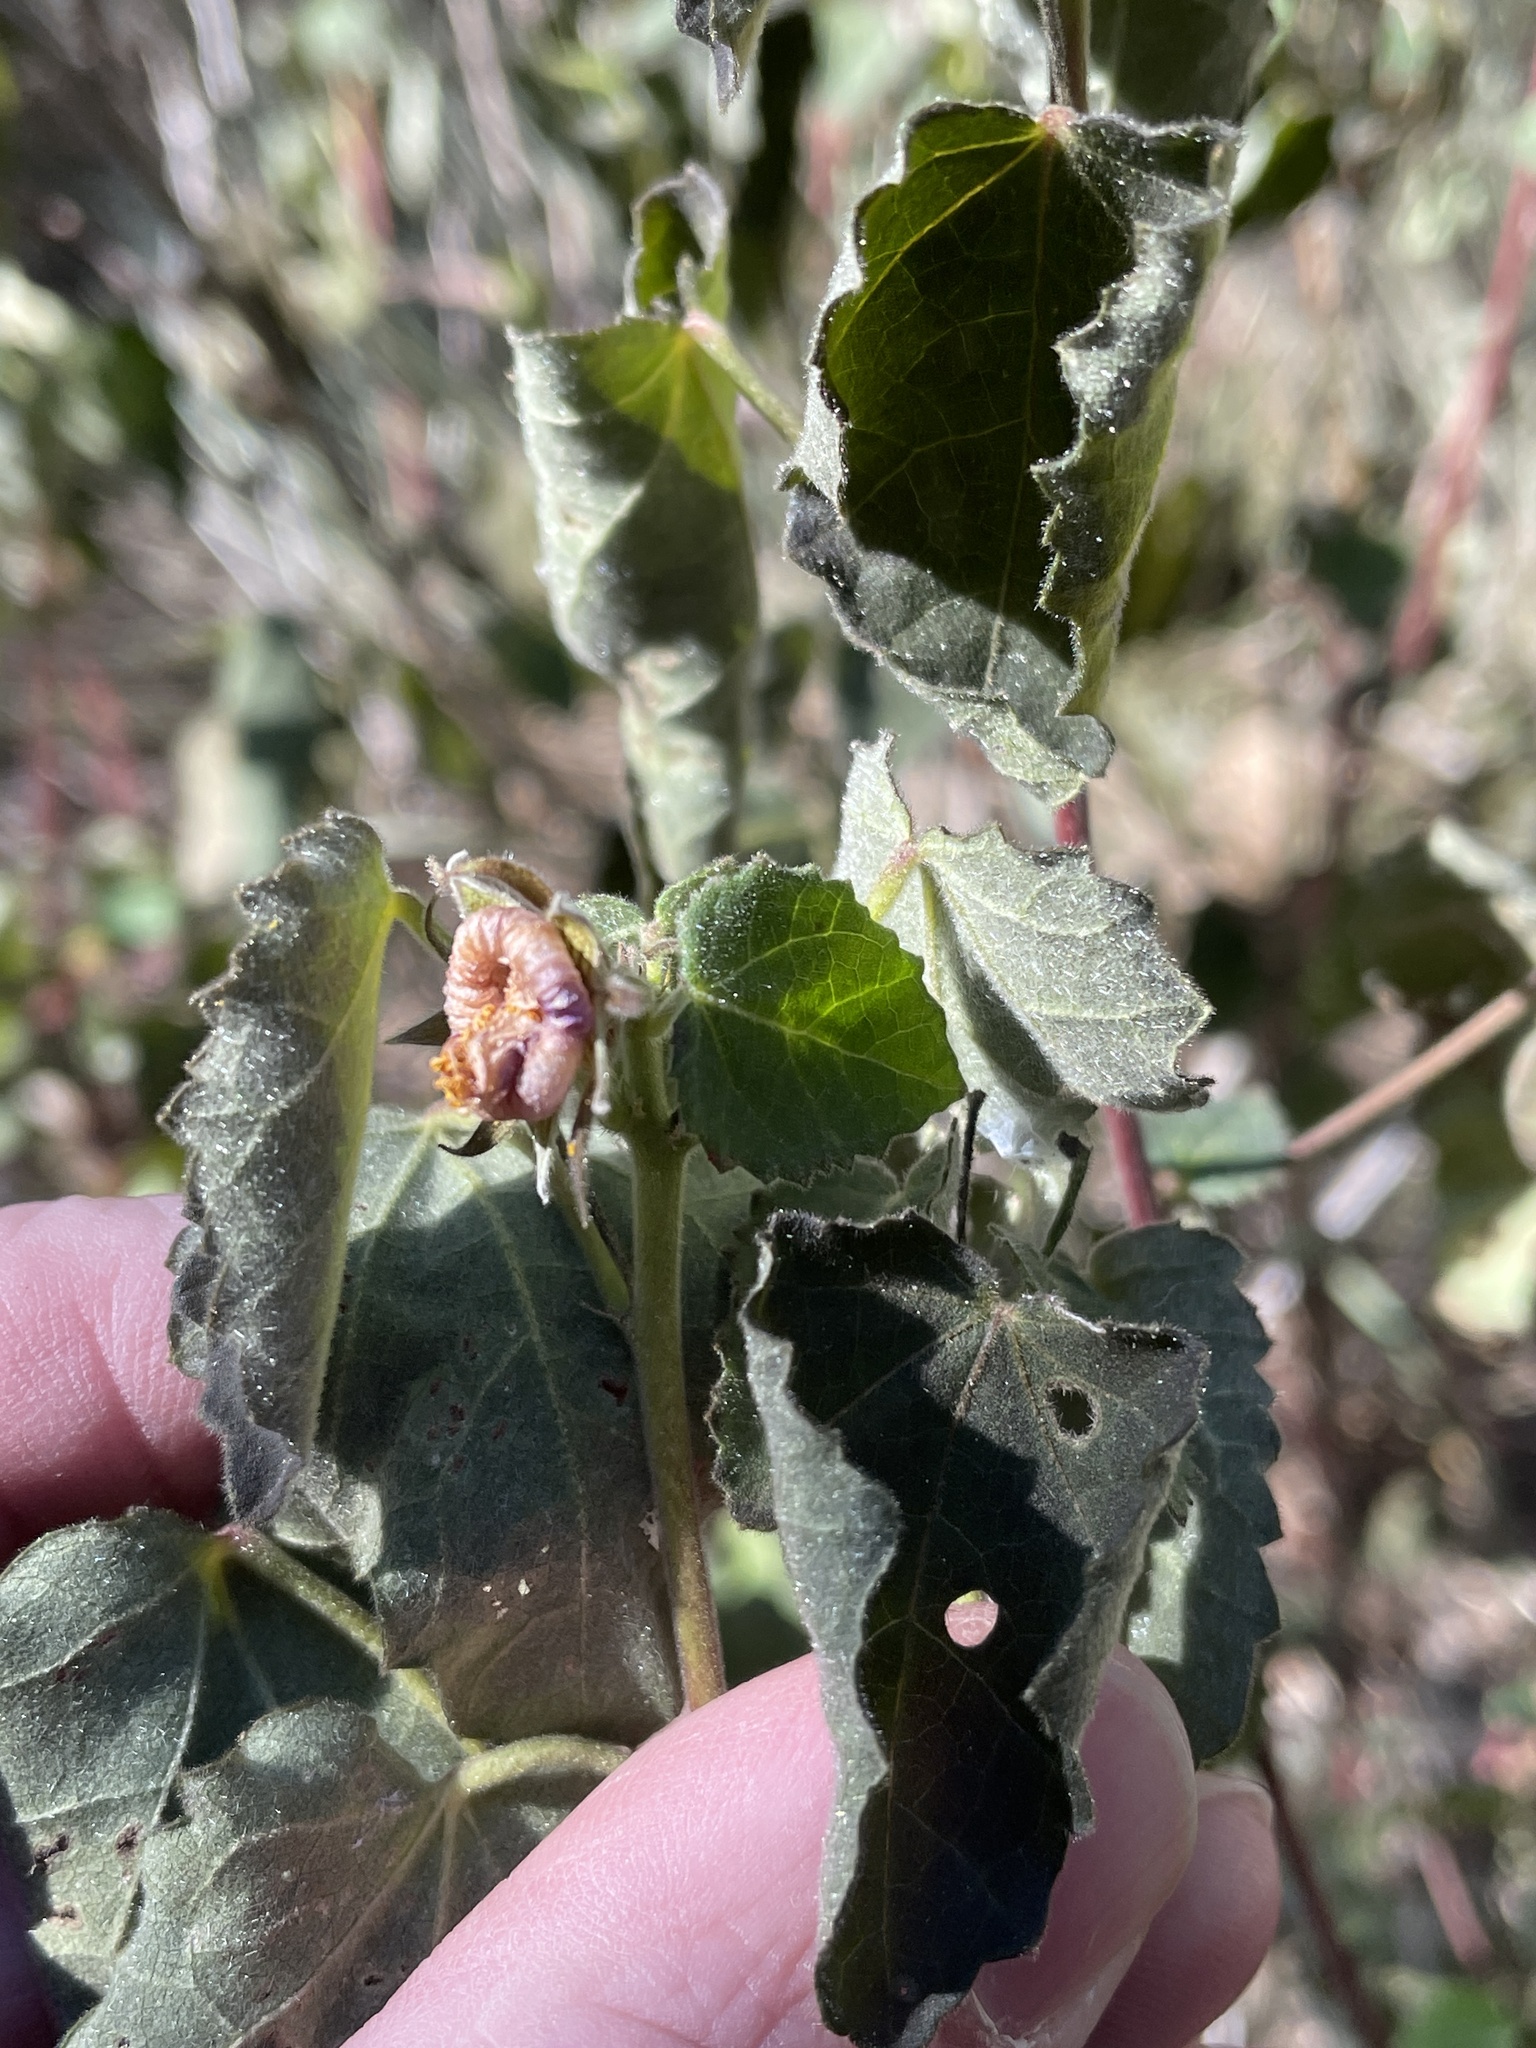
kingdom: Plantae
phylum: Tracheophyta
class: Magnoliopsida
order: Malvales
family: Malvaceae
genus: Pavonia
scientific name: Pavonia lasiopetala
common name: Texas swamp-mallow
